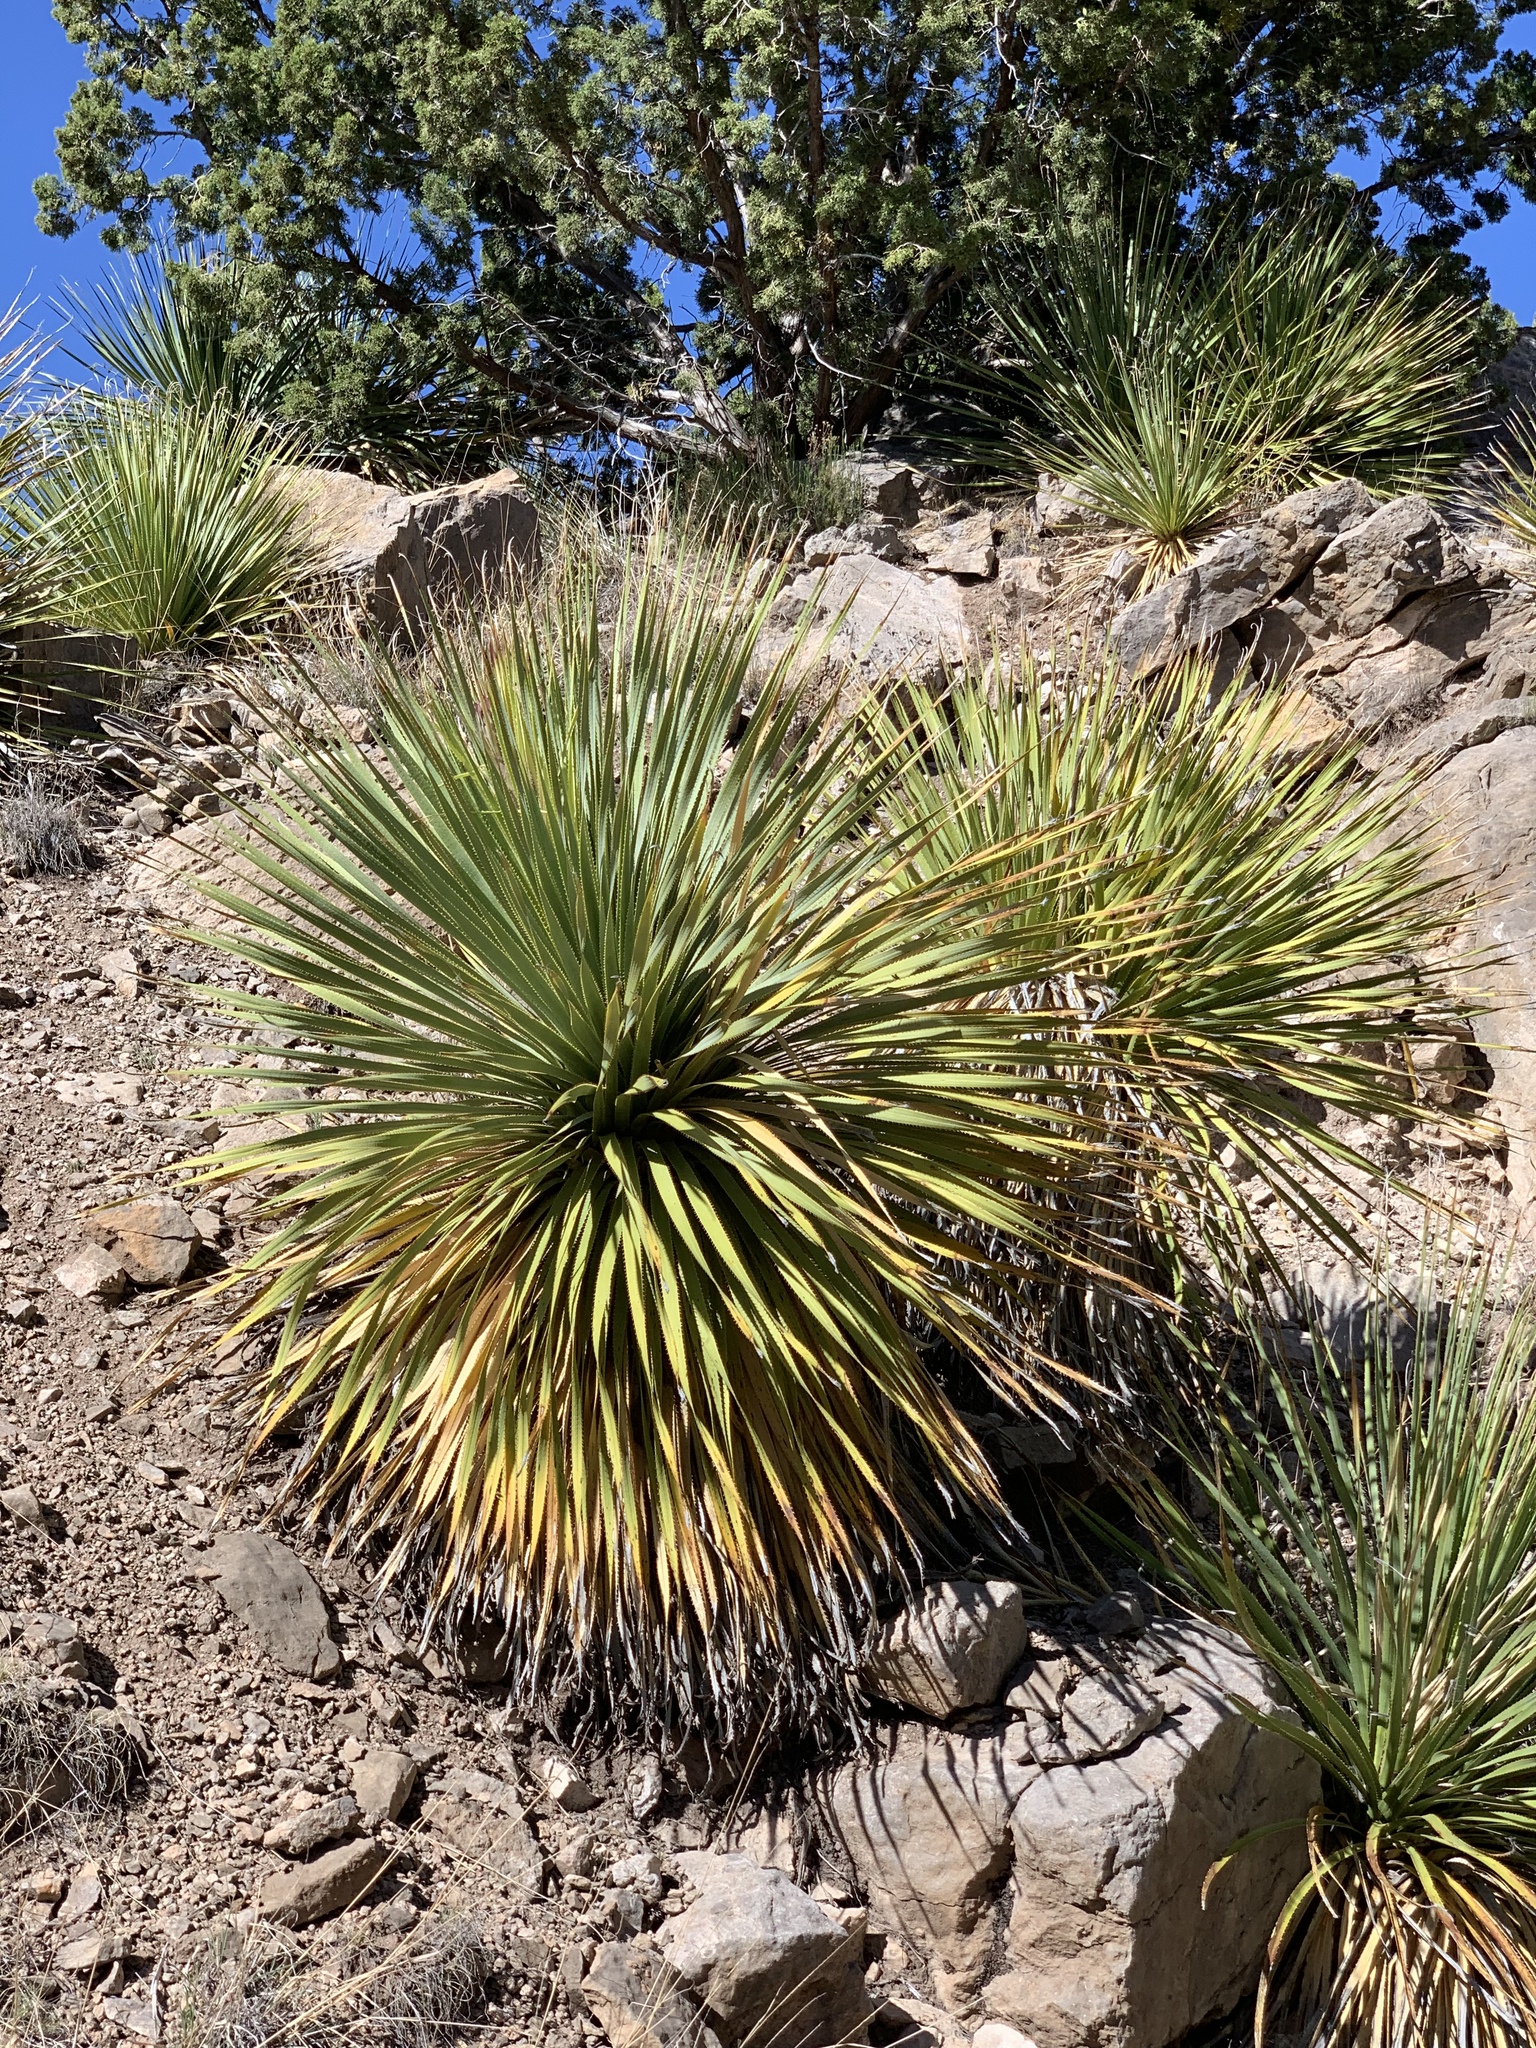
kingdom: Plantae
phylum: Tracheophyta
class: Liliopsida
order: Asparagales
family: Asparagaceae
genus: Dasylirion
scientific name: Dasylirion wheeleri
